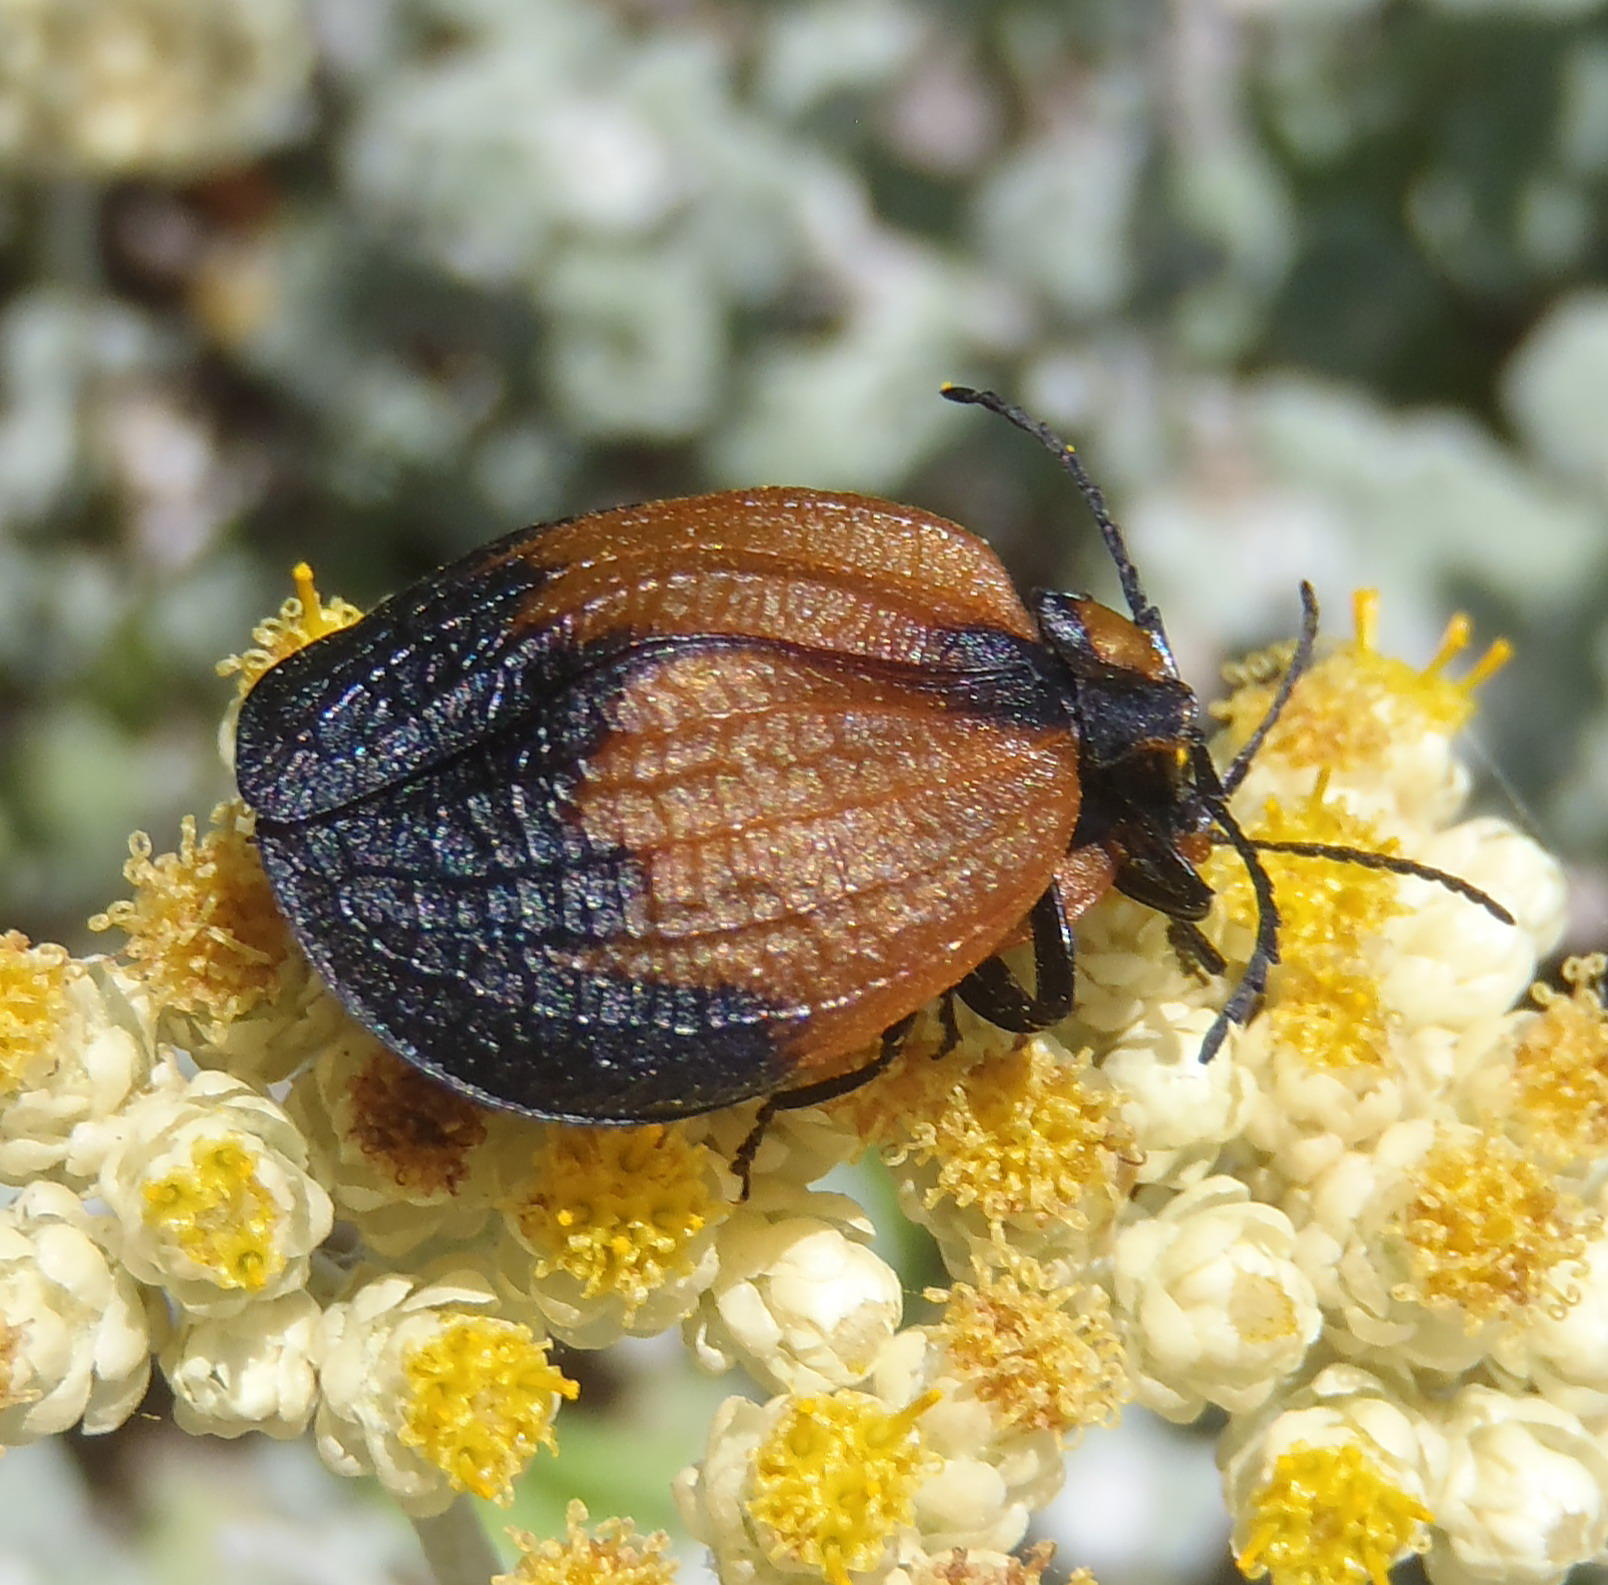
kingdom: Animalia
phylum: Arthropoda
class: Insecta
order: Coleoptera
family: Lycidae
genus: Lycus
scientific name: Lycus
